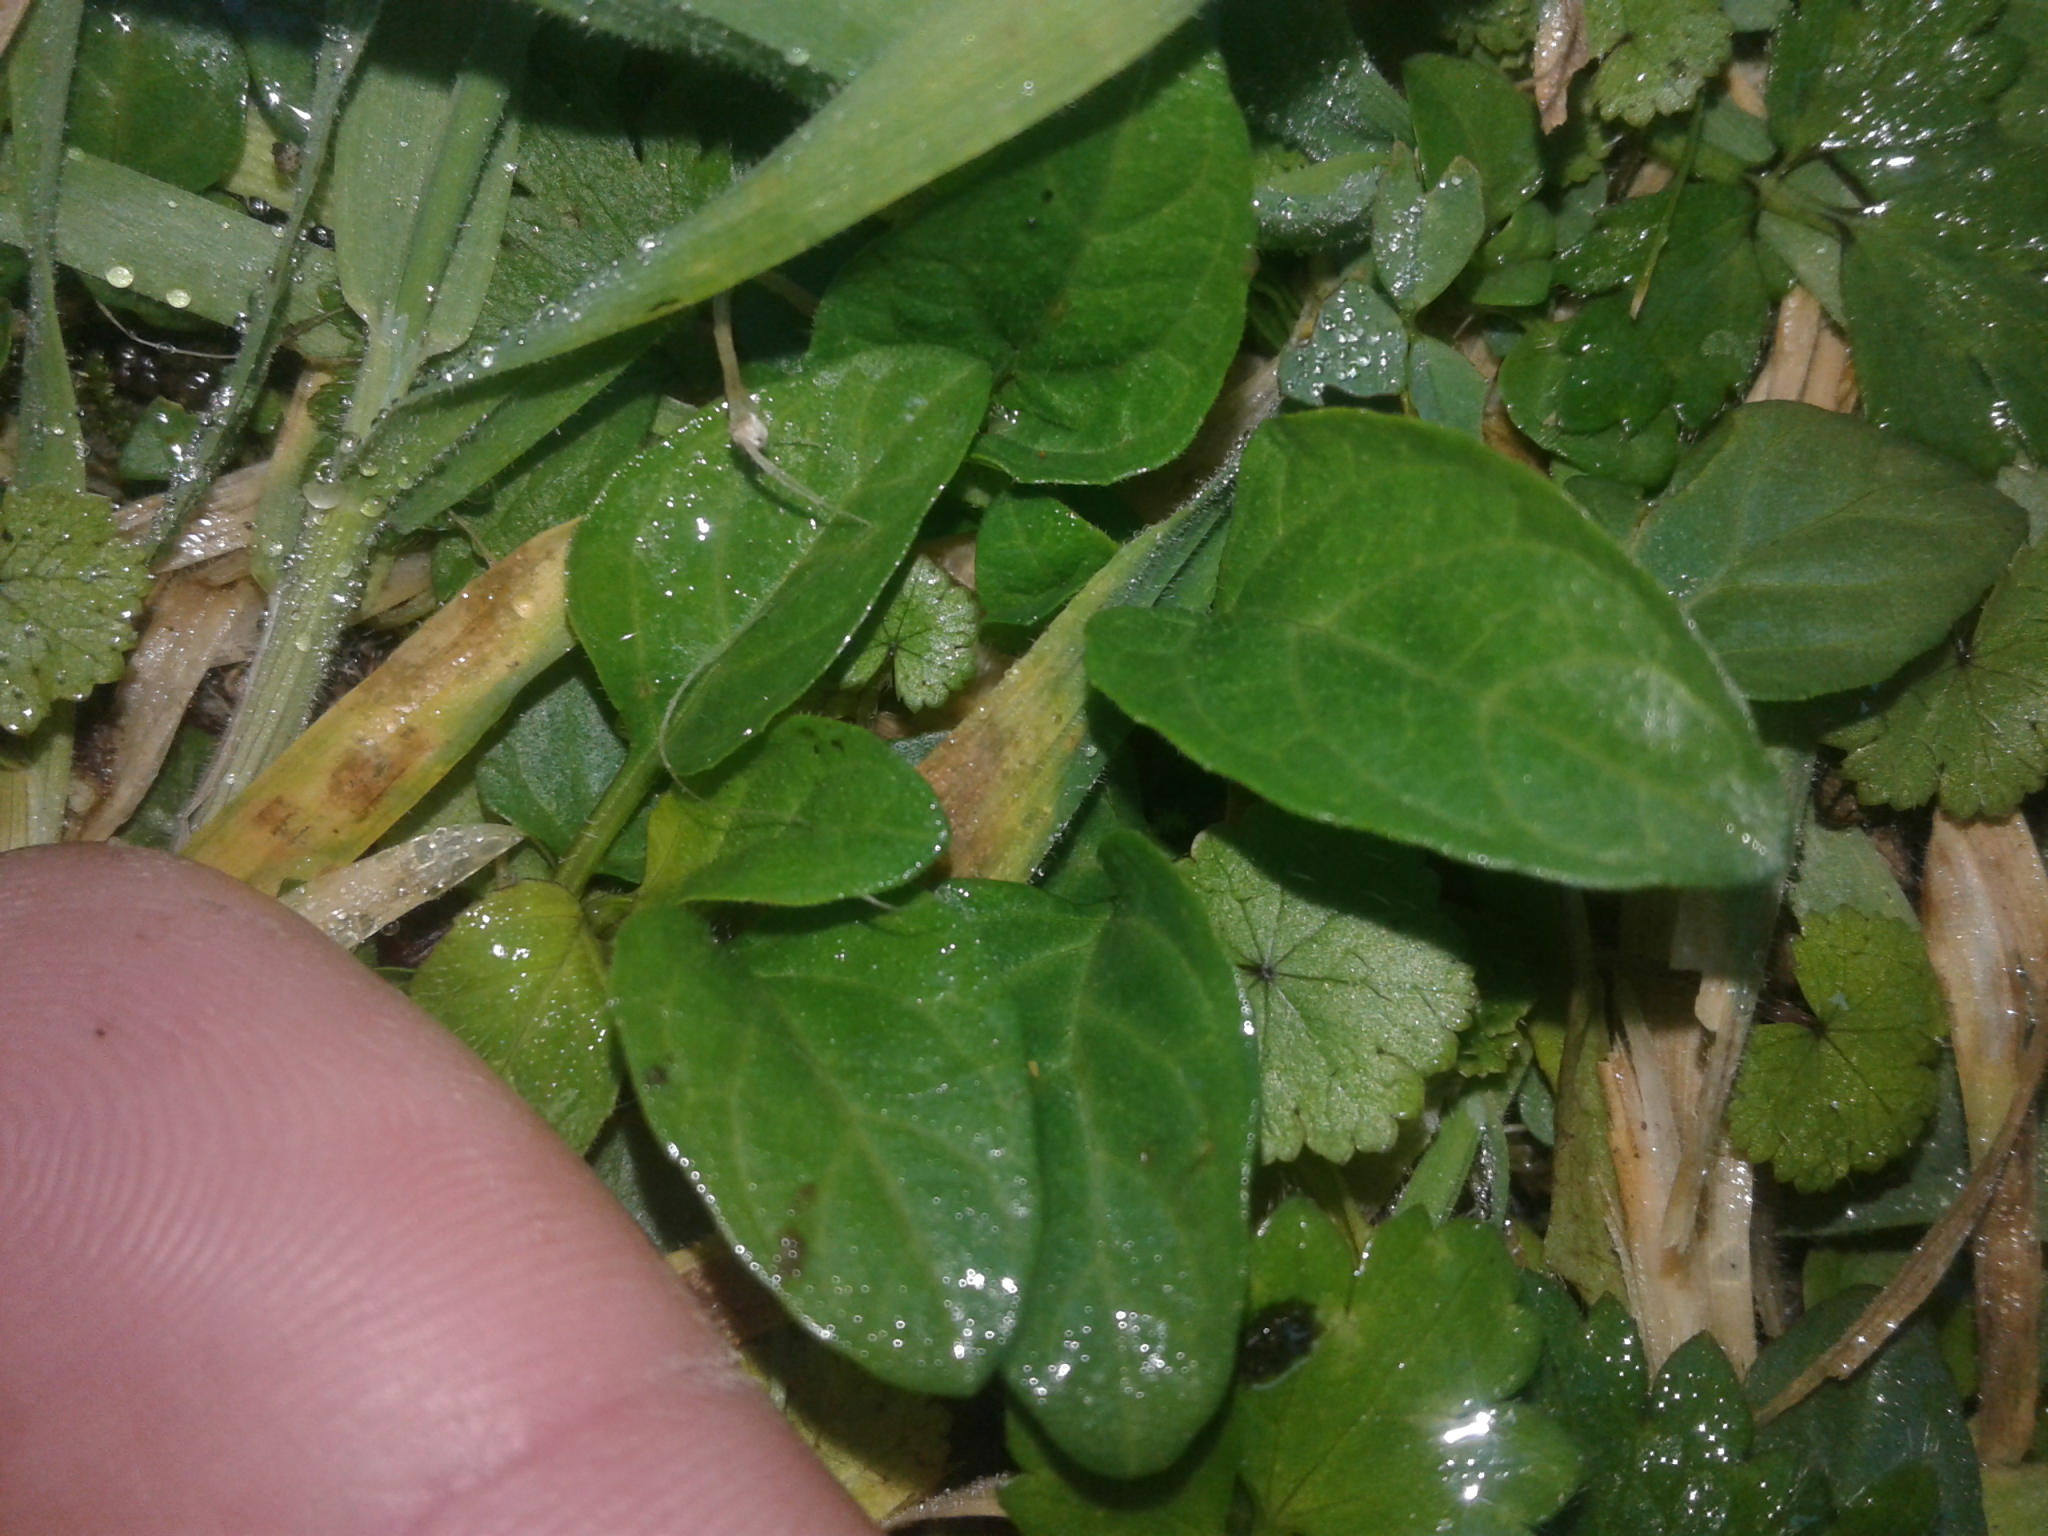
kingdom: Plantae
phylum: Tracheophyta
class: Magnoliopsida
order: Lamiales
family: Lamiaceae
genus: Prunella
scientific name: Prunella vulgaris
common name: Heal-all
